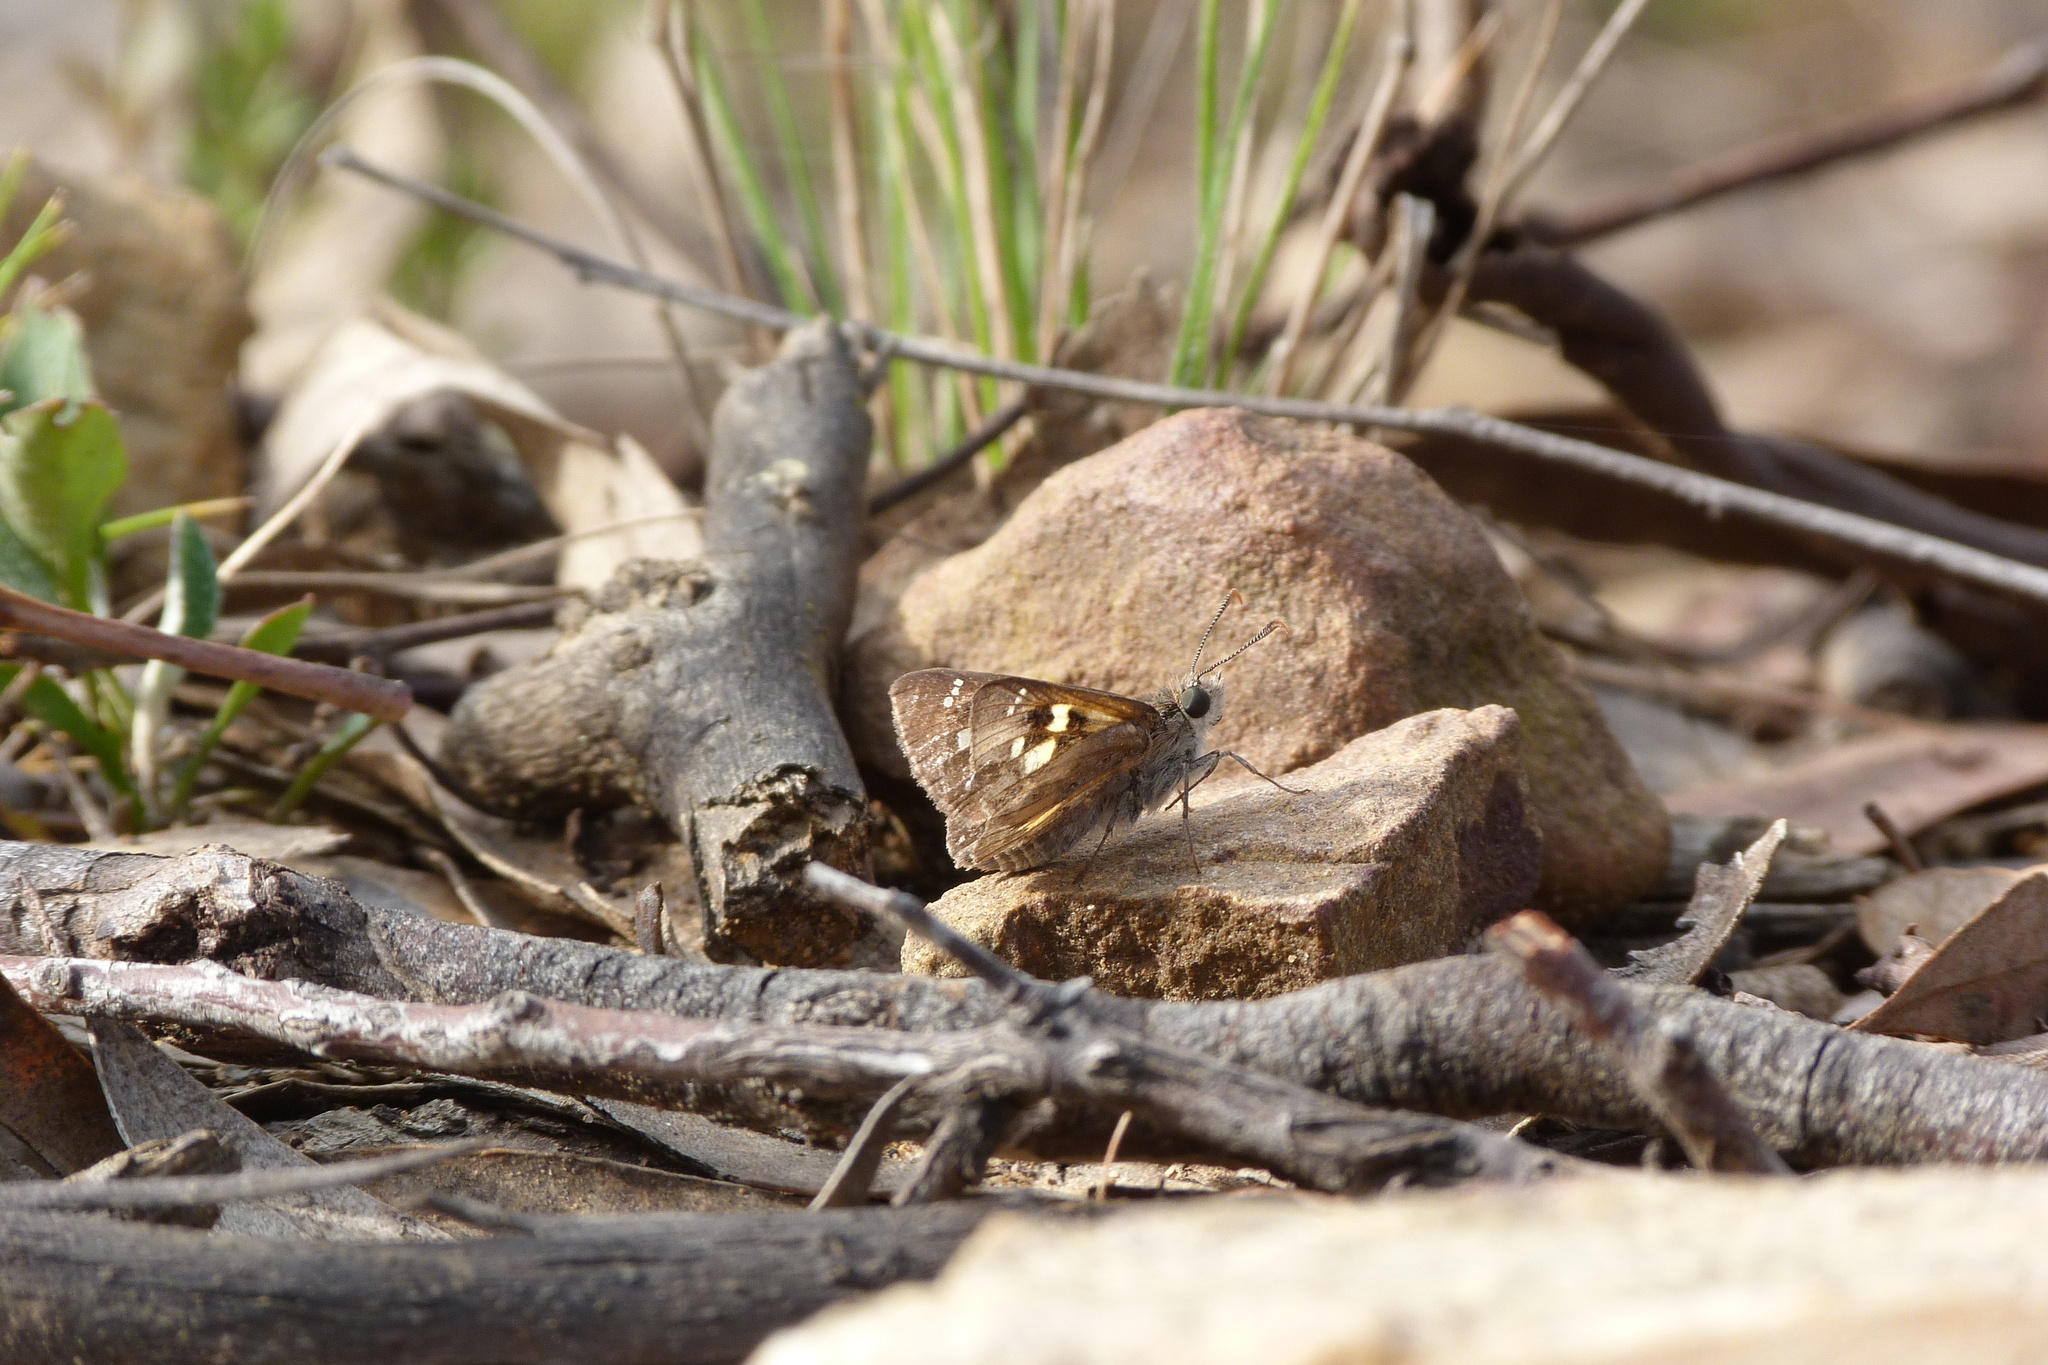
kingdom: Animalia
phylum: Arthropoda
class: Insecta
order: Lepidoptera
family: Hesperiidae
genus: Trapezites
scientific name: Trapezites phigalia
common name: Heath ochre
